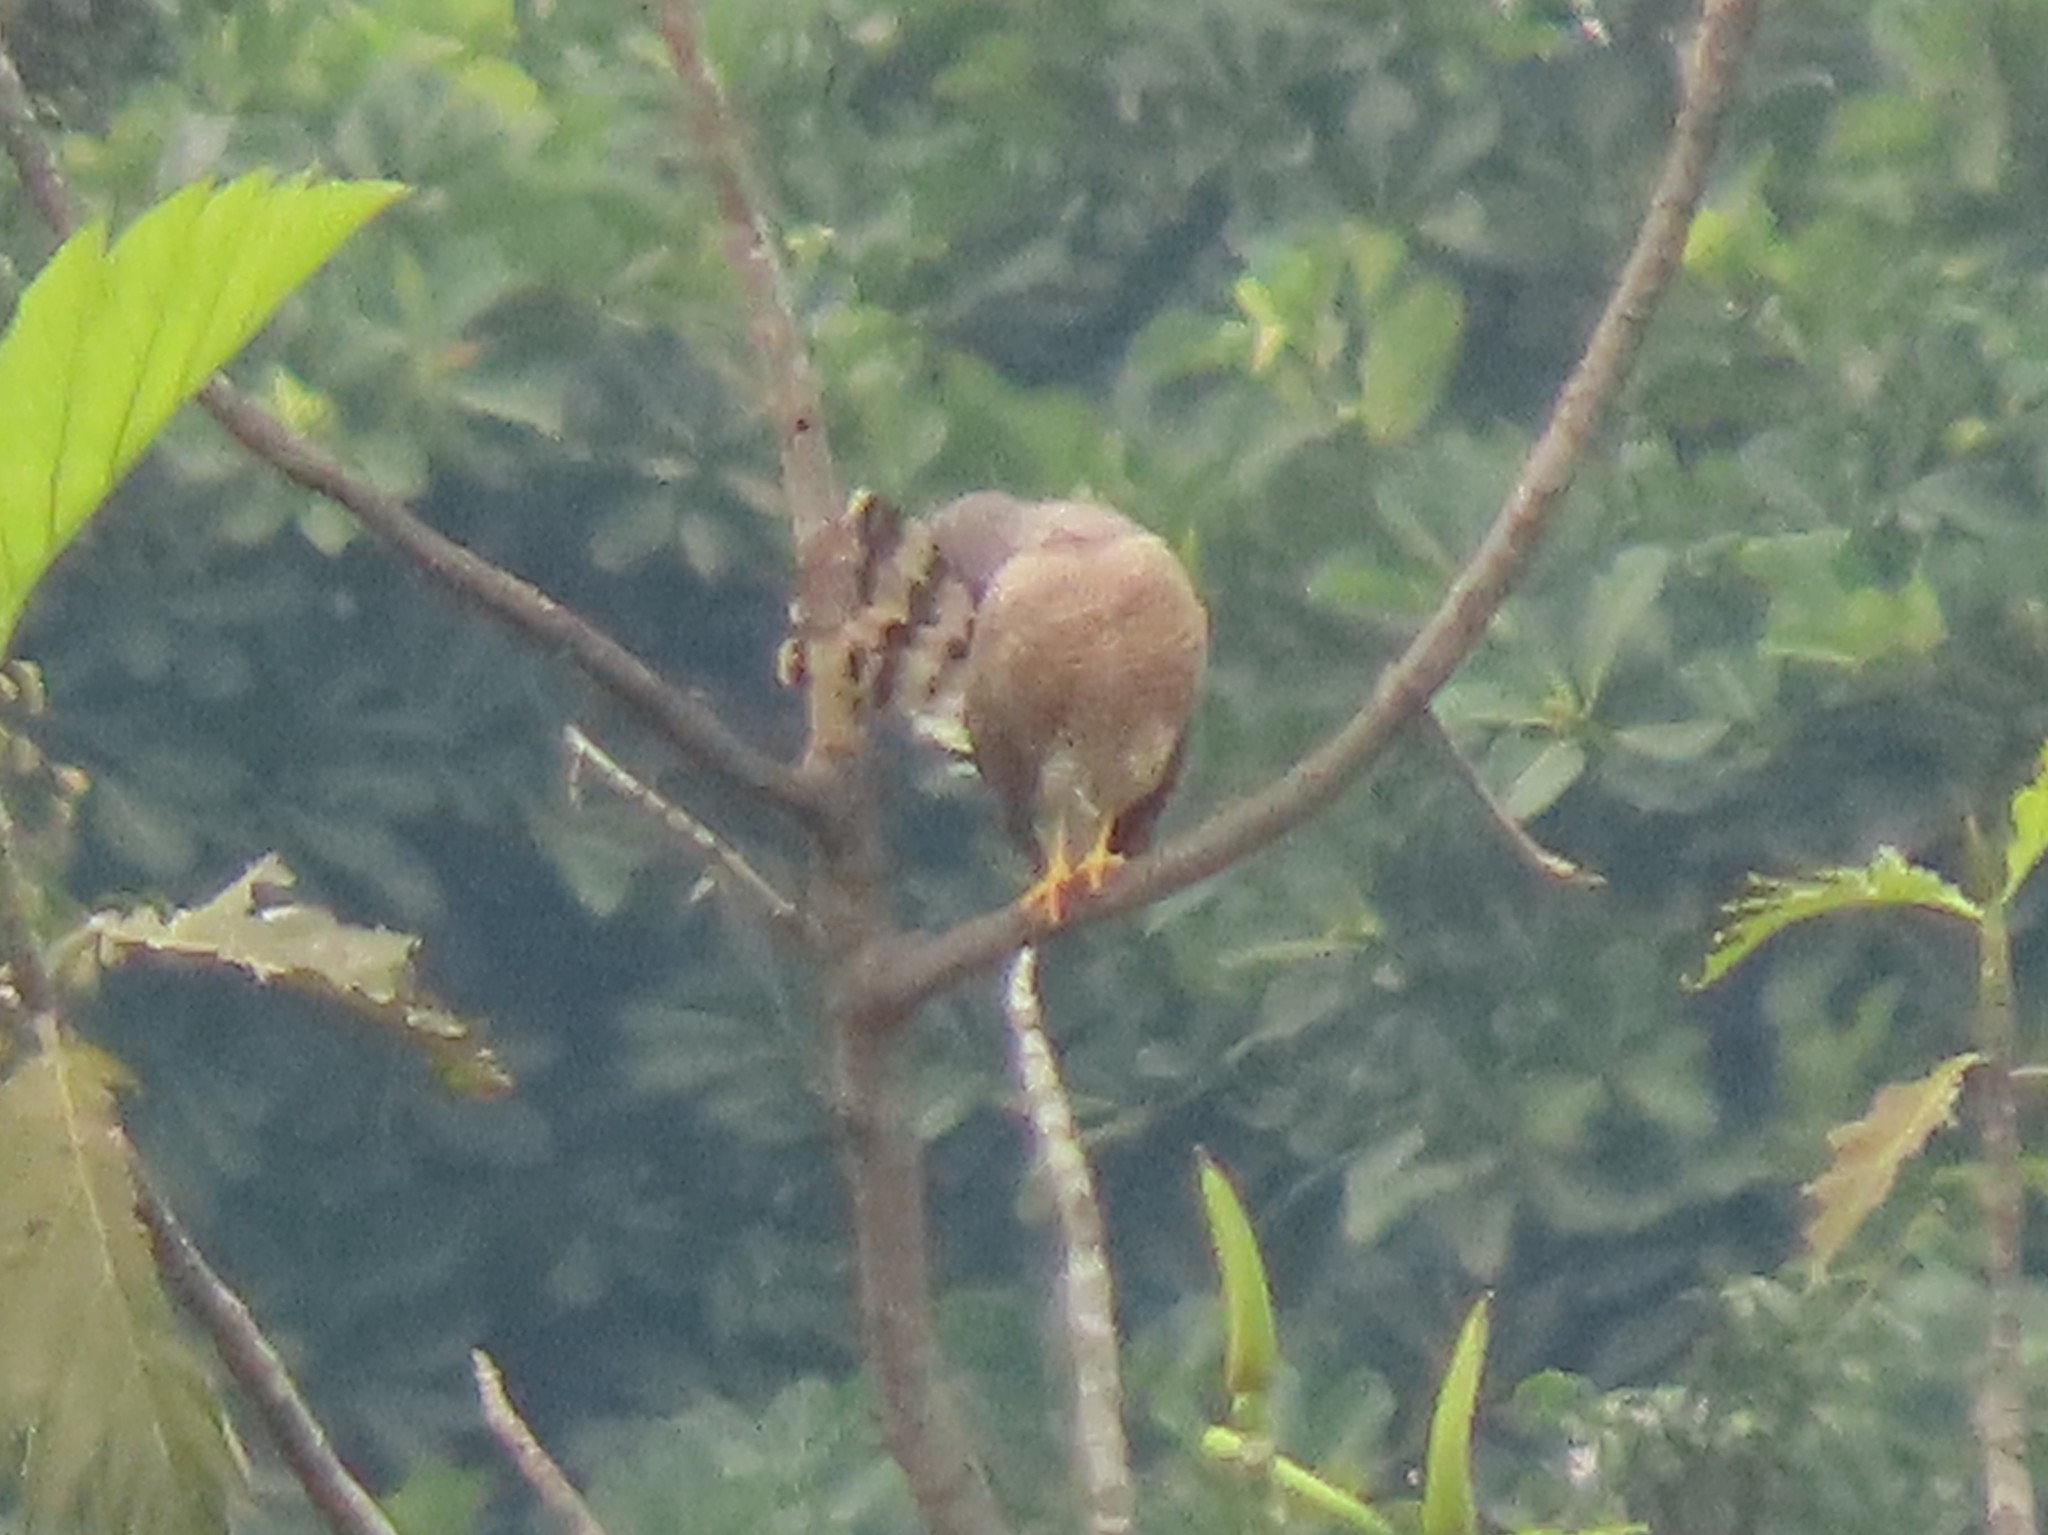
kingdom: Animalia
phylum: Chordata
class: Aves
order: Accipitriformes
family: Accipitridae
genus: Rupornis
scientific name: Rupornis magnirostris
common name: Roadside hawk
